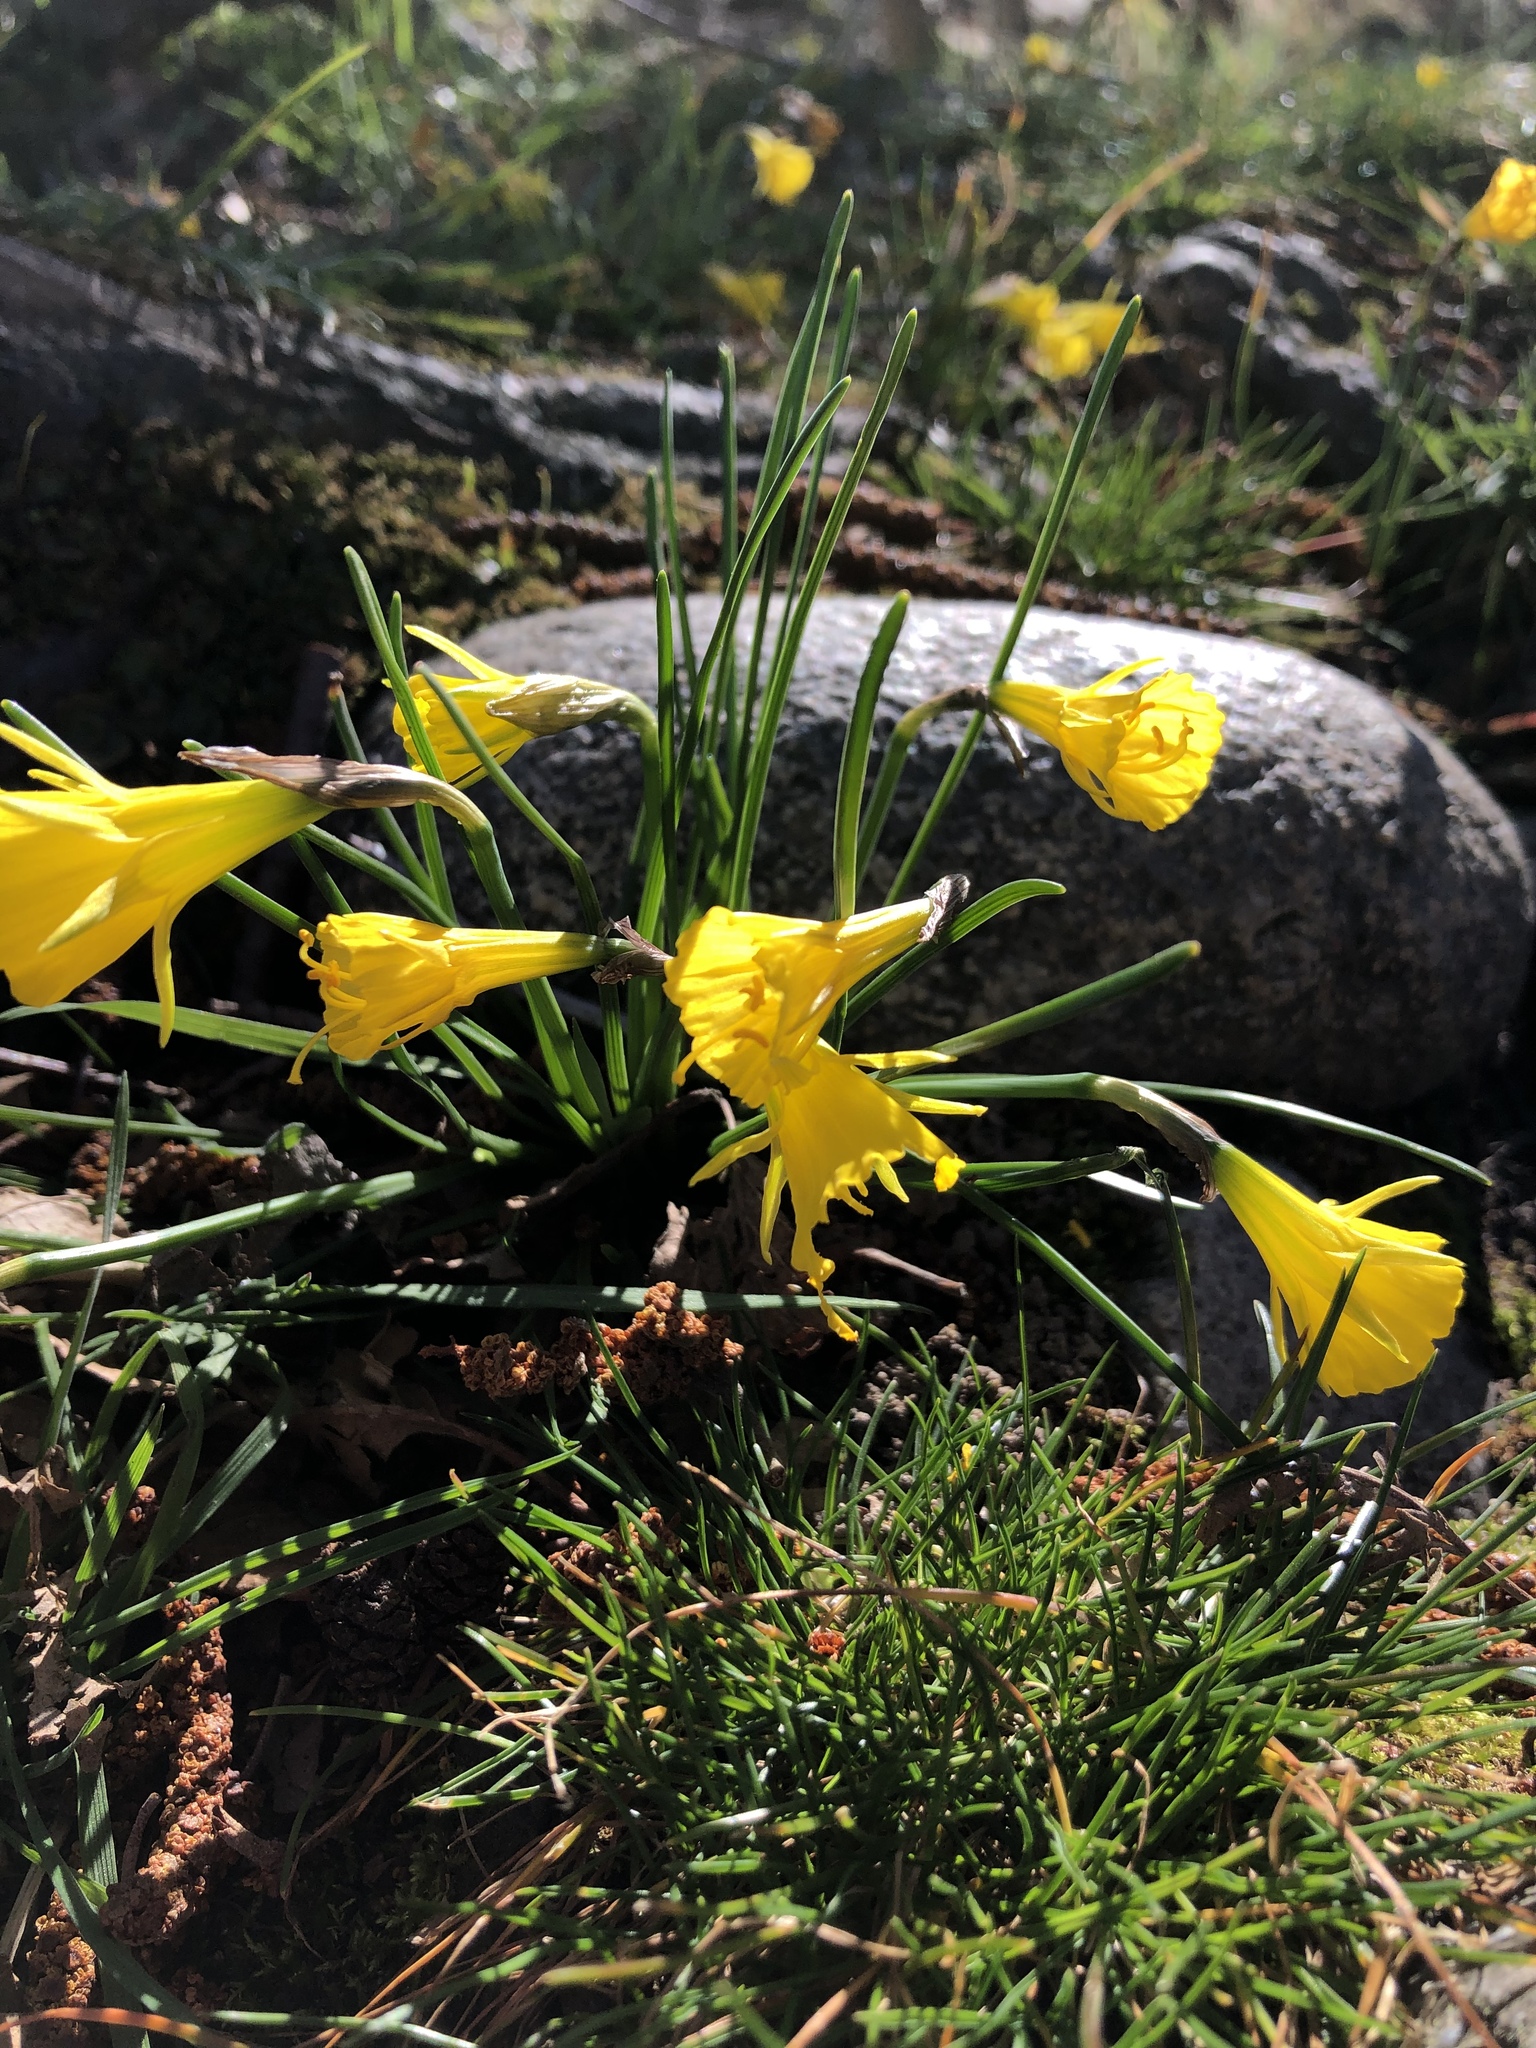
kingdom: Plantae
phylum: Tracheophyta
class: Liliopsida
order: Asparagales
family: Amaryllidaceae
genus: Narcissus
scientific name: Narcissus bulbocodium
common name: Hoop-petticoat daffodil
